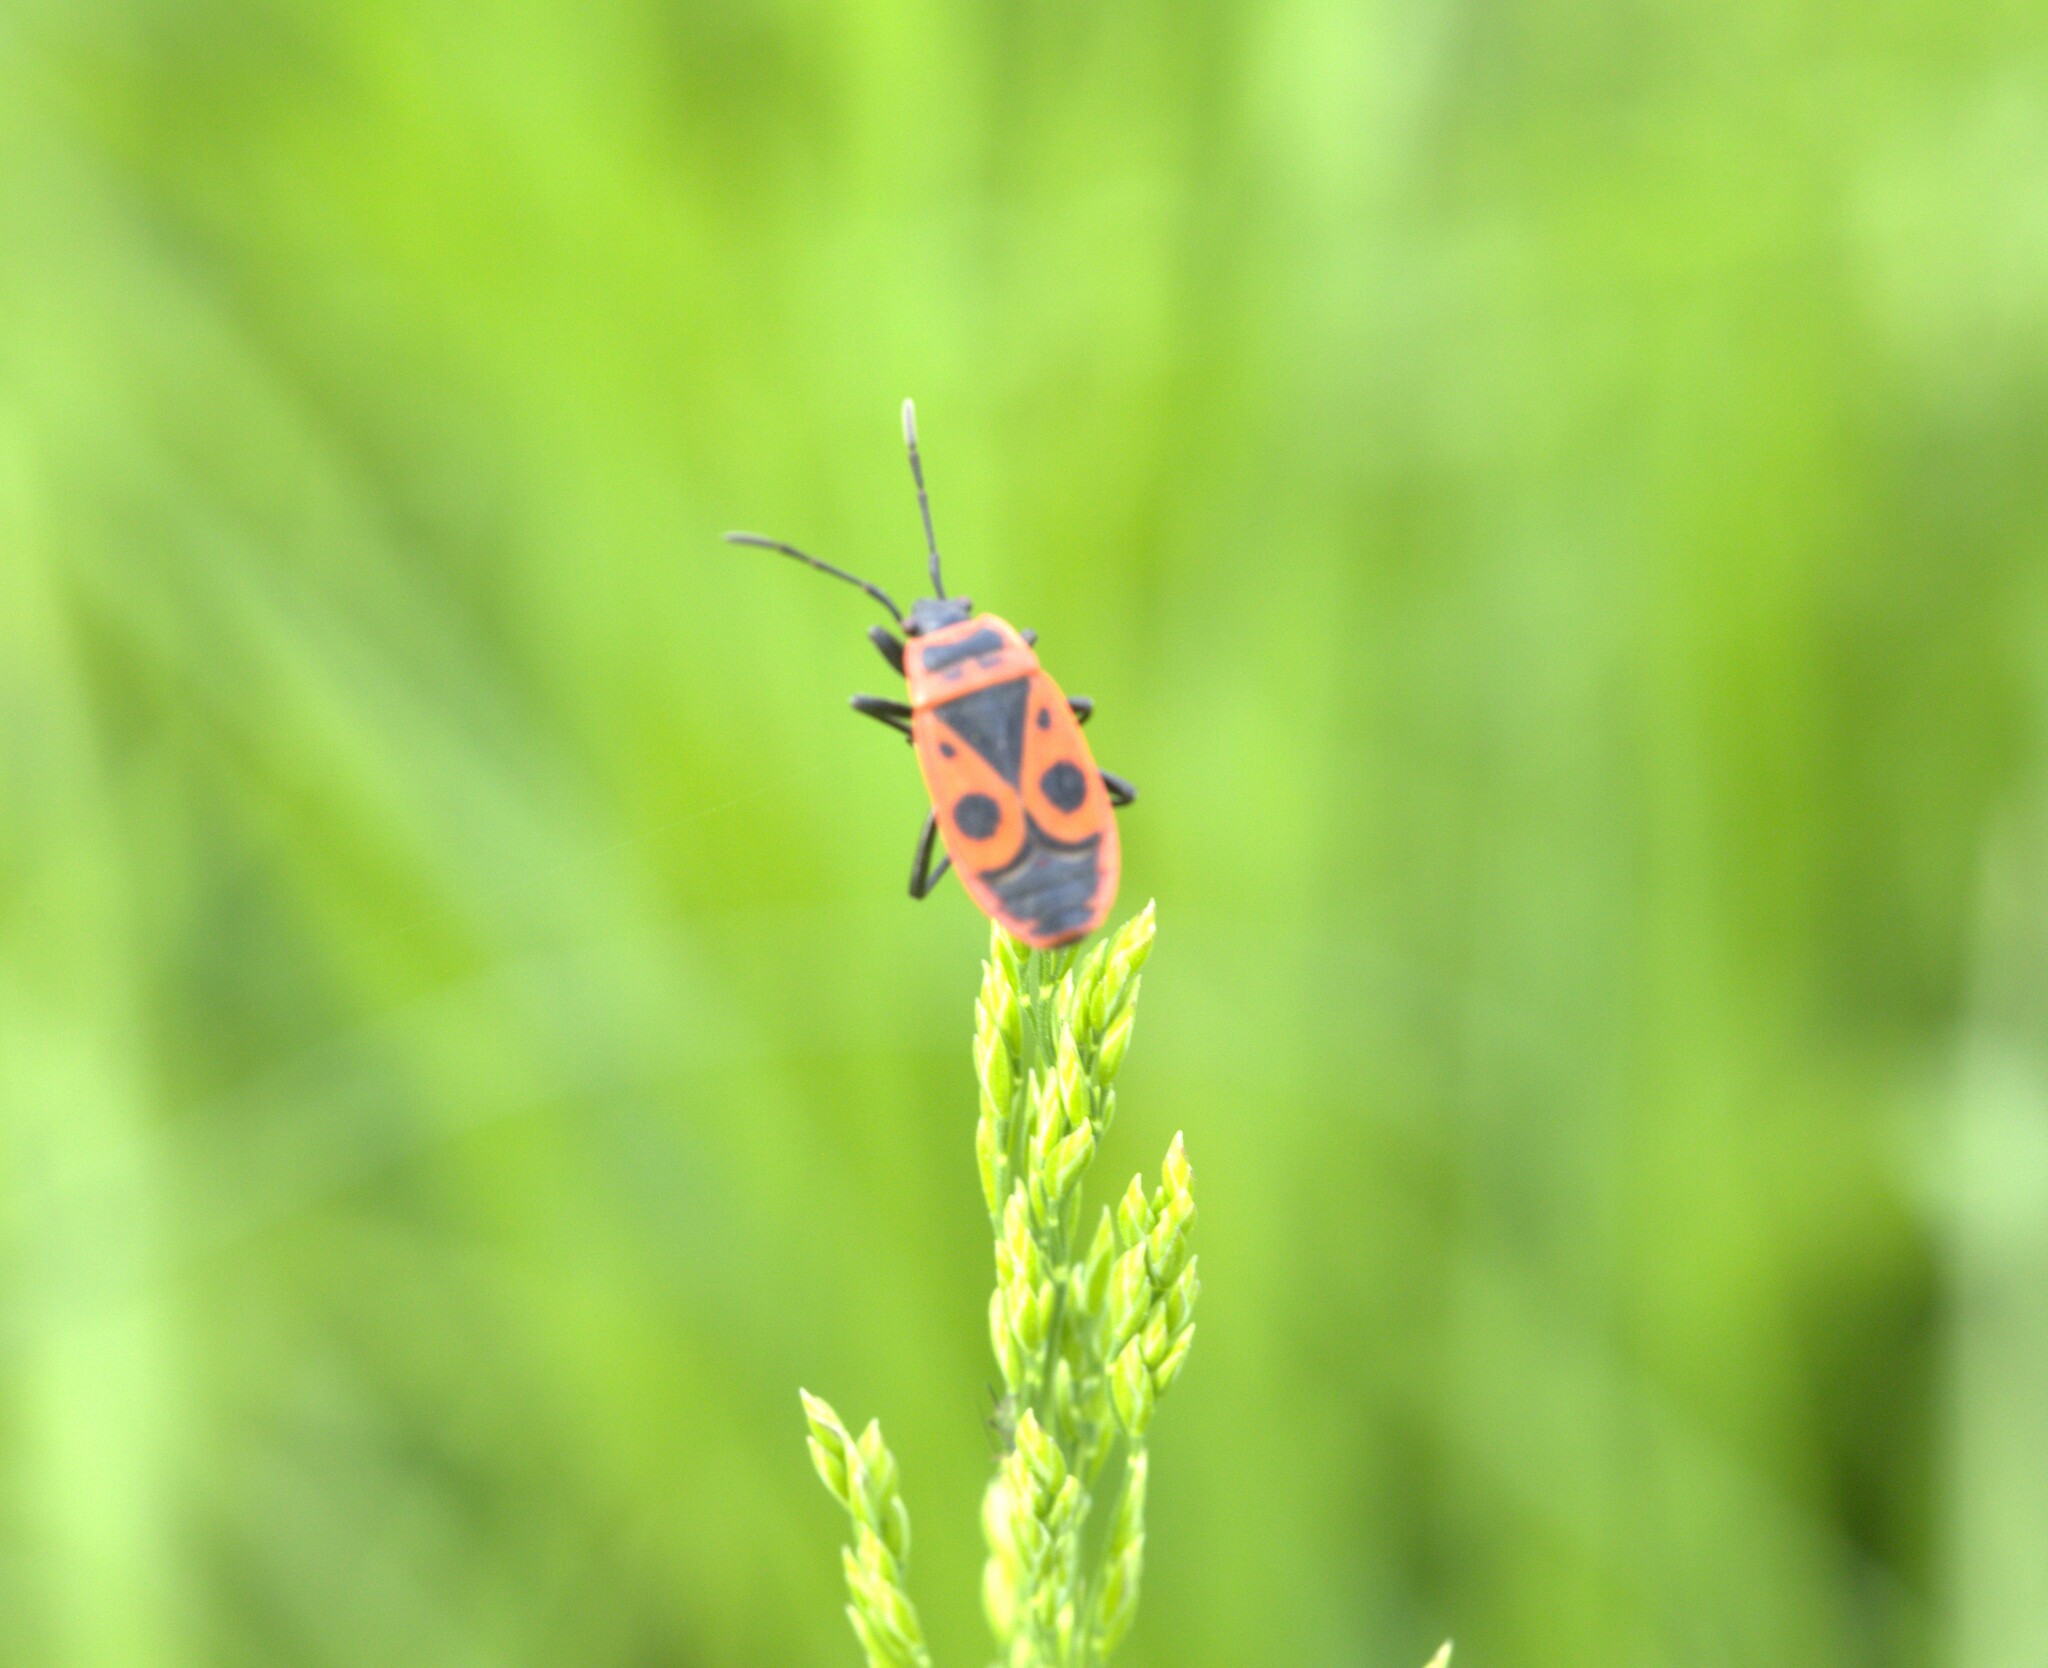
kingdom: Animalia
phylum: Arthropoda
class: Insecta
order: Hemiptera
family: Pyrrhocoridae
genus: Pyrrhocoris
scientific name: Pyrrhocoris apterus
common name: Firebug
